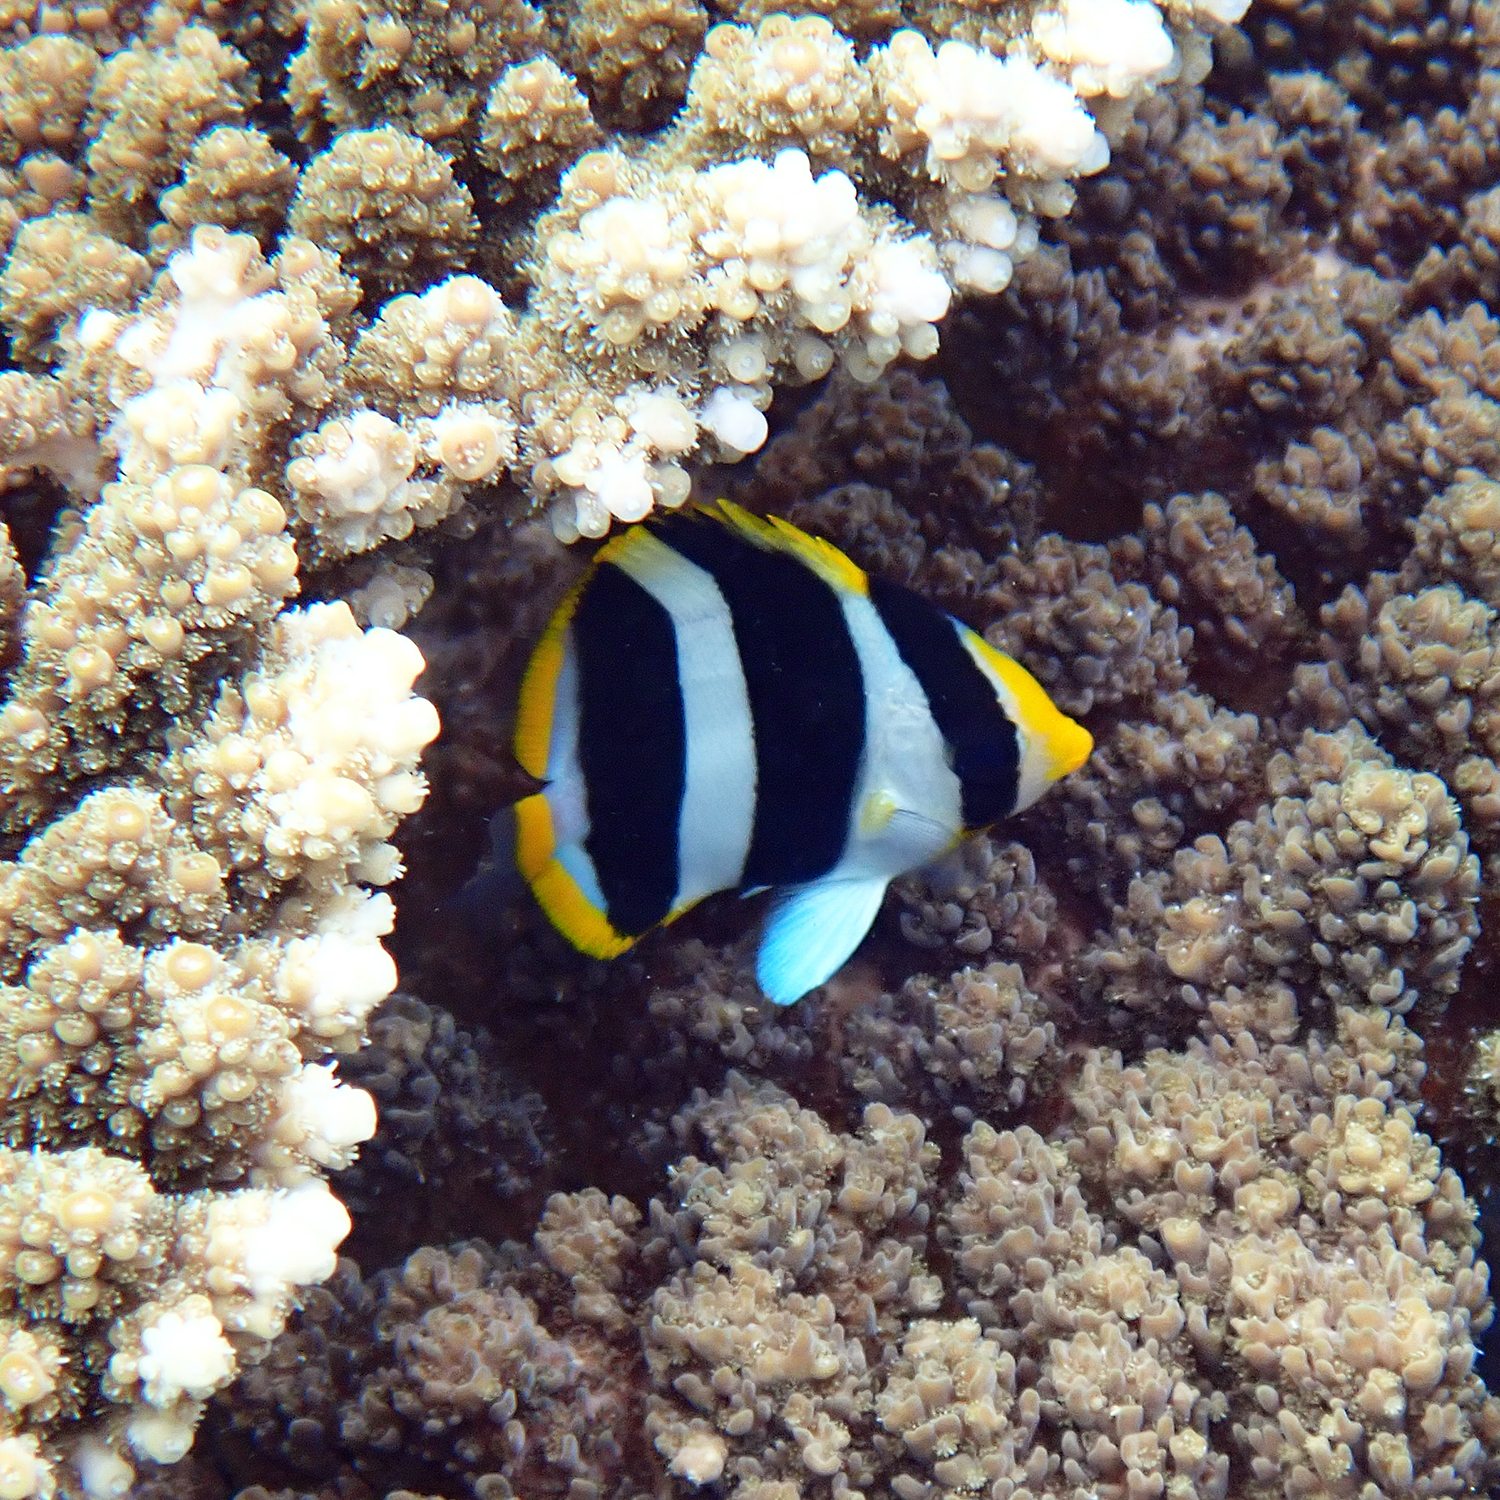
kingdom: Animalia
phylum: Chordata
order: Perciformes
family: Chaetodontidae
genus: Chaetodon
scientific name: Chaetodon tricinctus
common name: Three-striped butterflyfish
